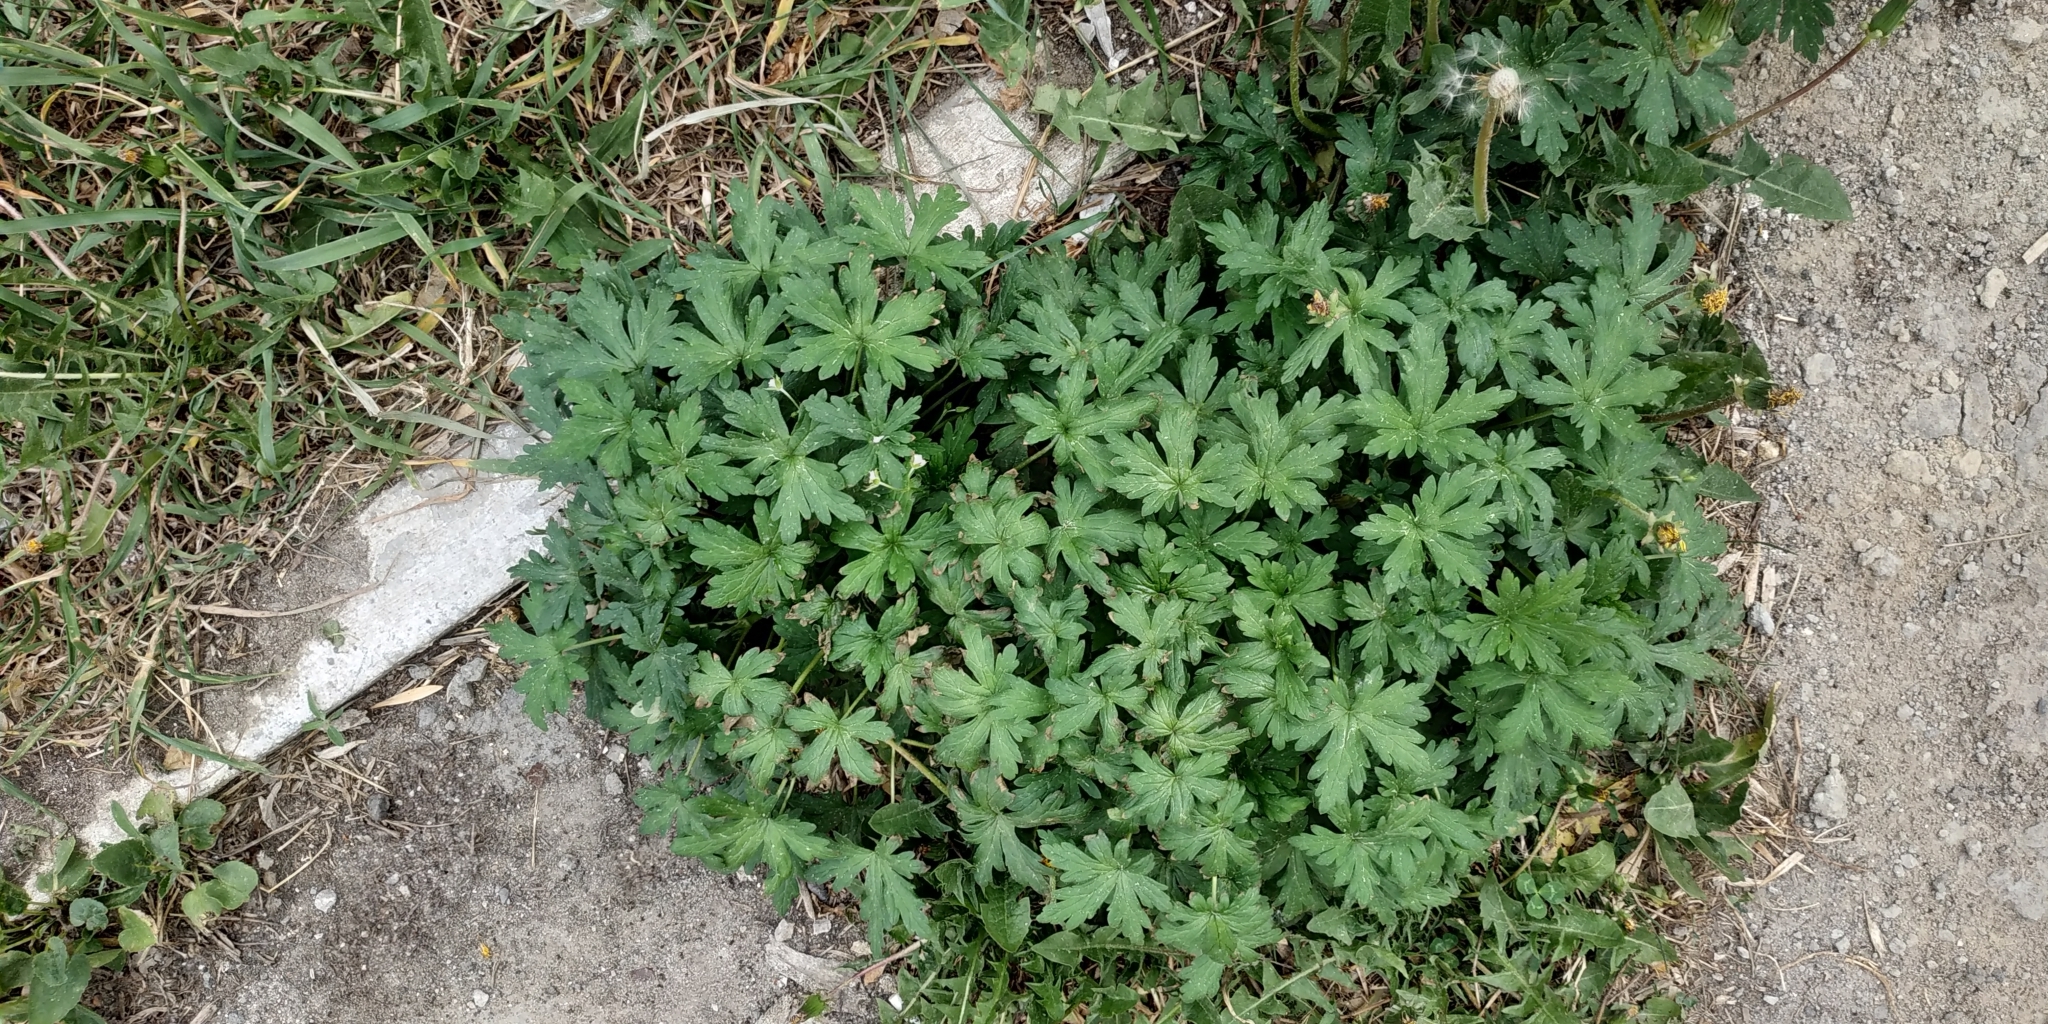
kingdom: Plantae
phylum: Tracheophyta
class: Magnoliopsida
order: Geraniales
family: Geraniaceae
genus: Geranium
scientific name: Geranium sibiricum
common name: Siberian crane's-bill
